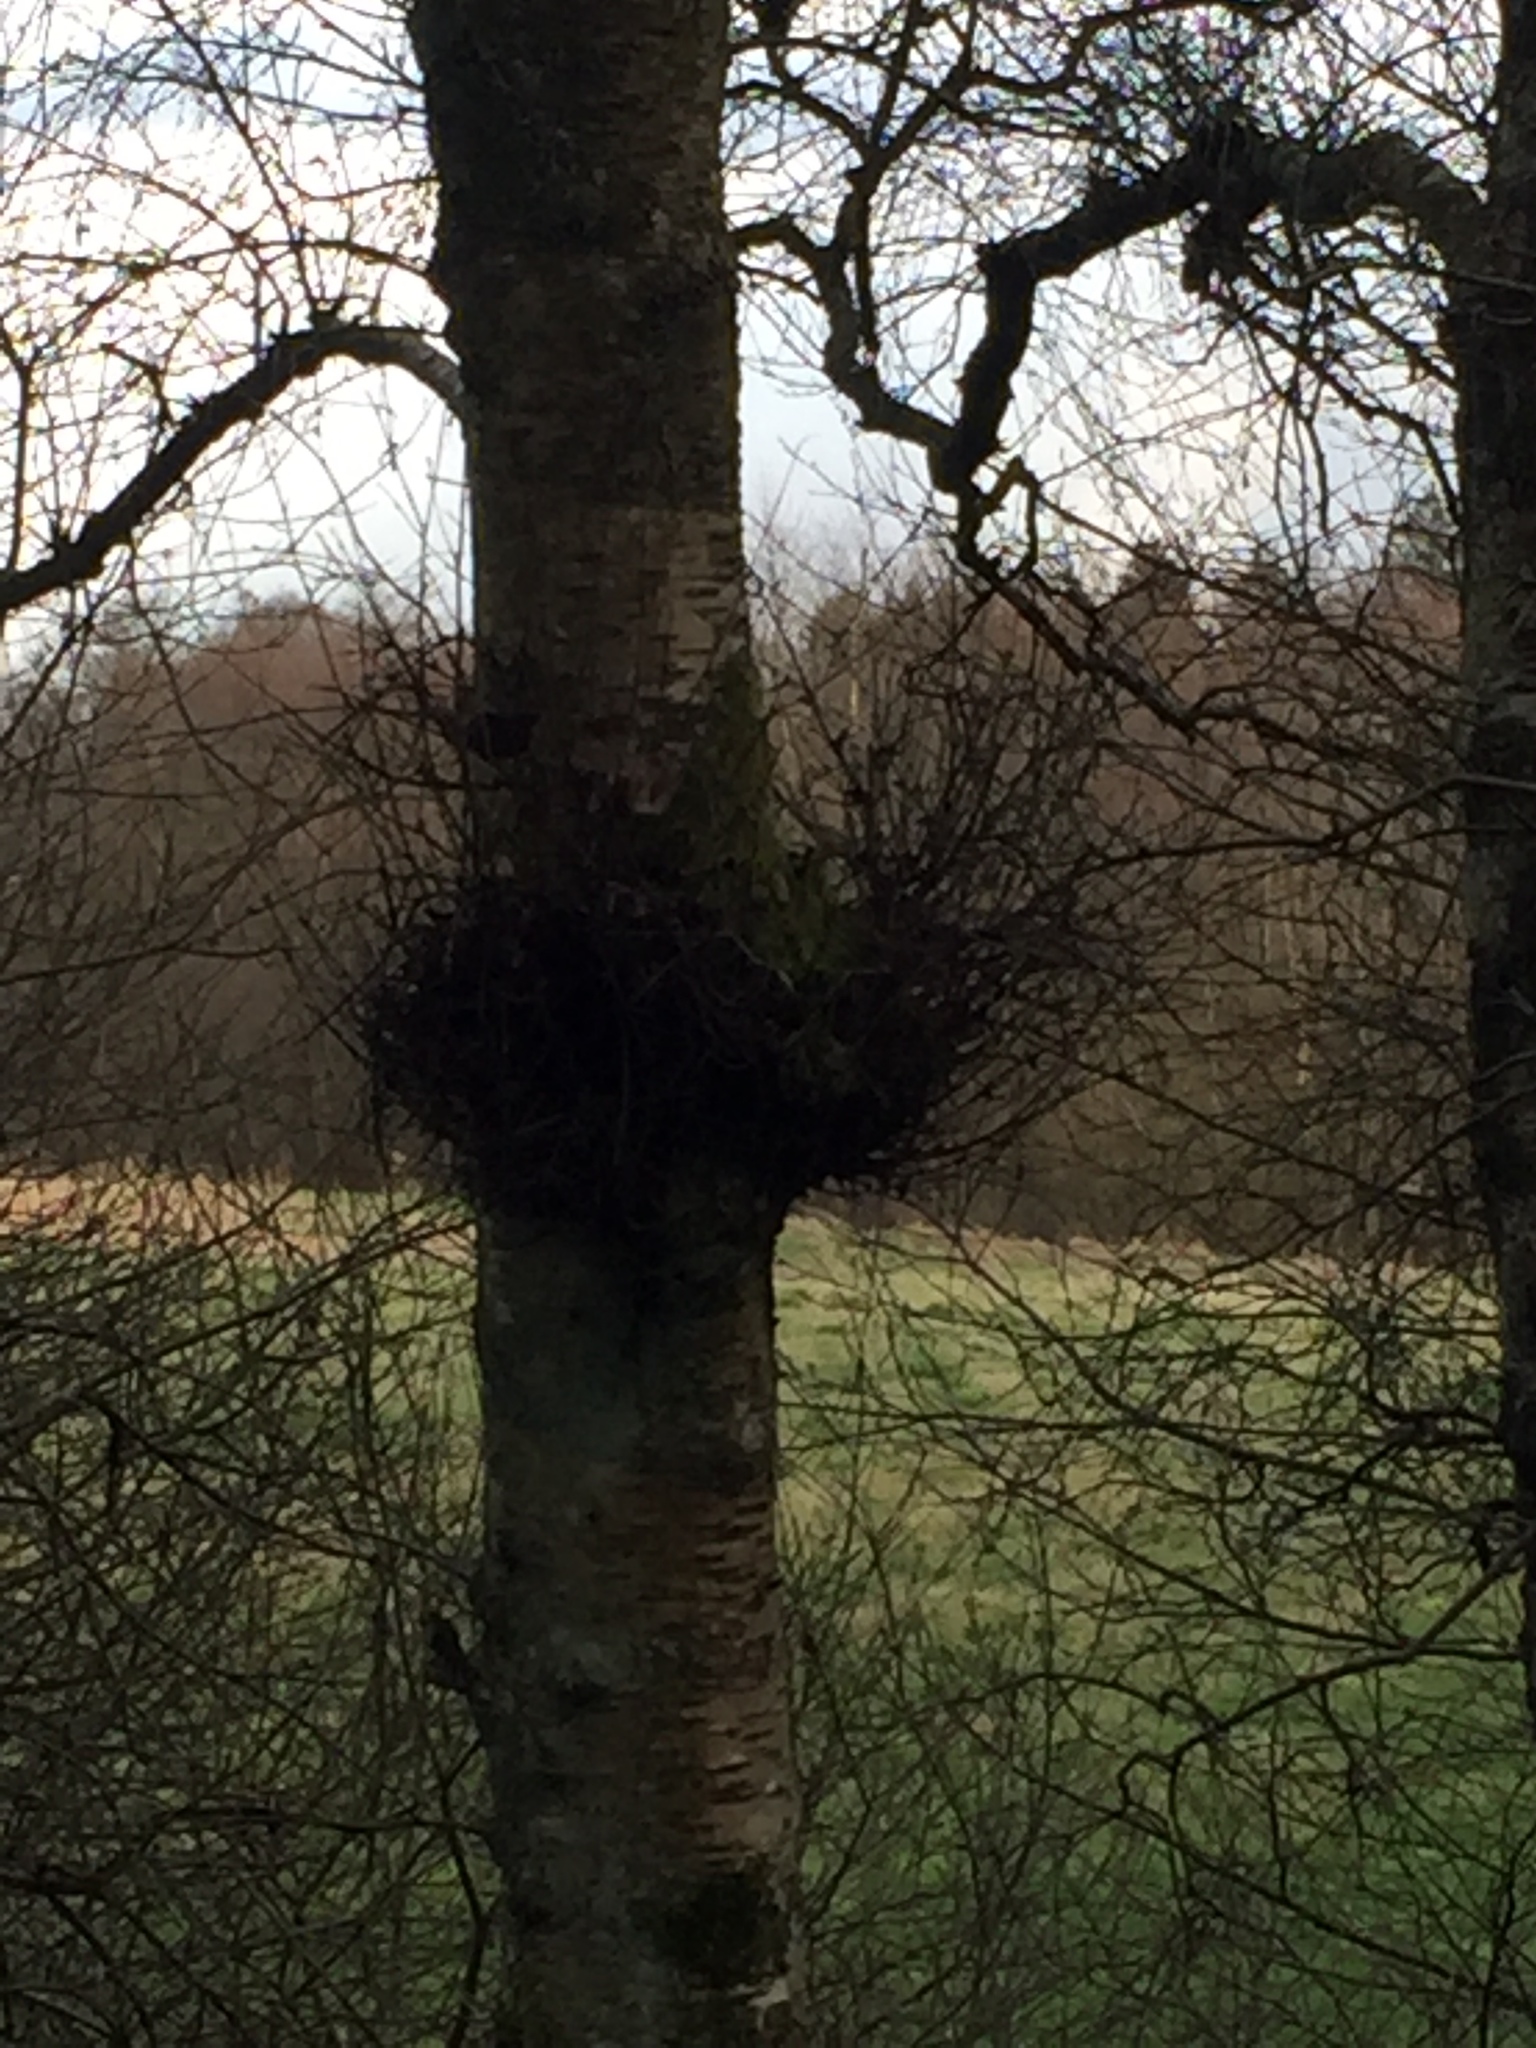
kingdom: Fungi
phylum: Ascomycota
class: Taphrinomycetes
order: Taphrinales
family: Taphrinaceae
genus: Taphrina
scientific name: Taphrina betulina
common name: Birch besom
